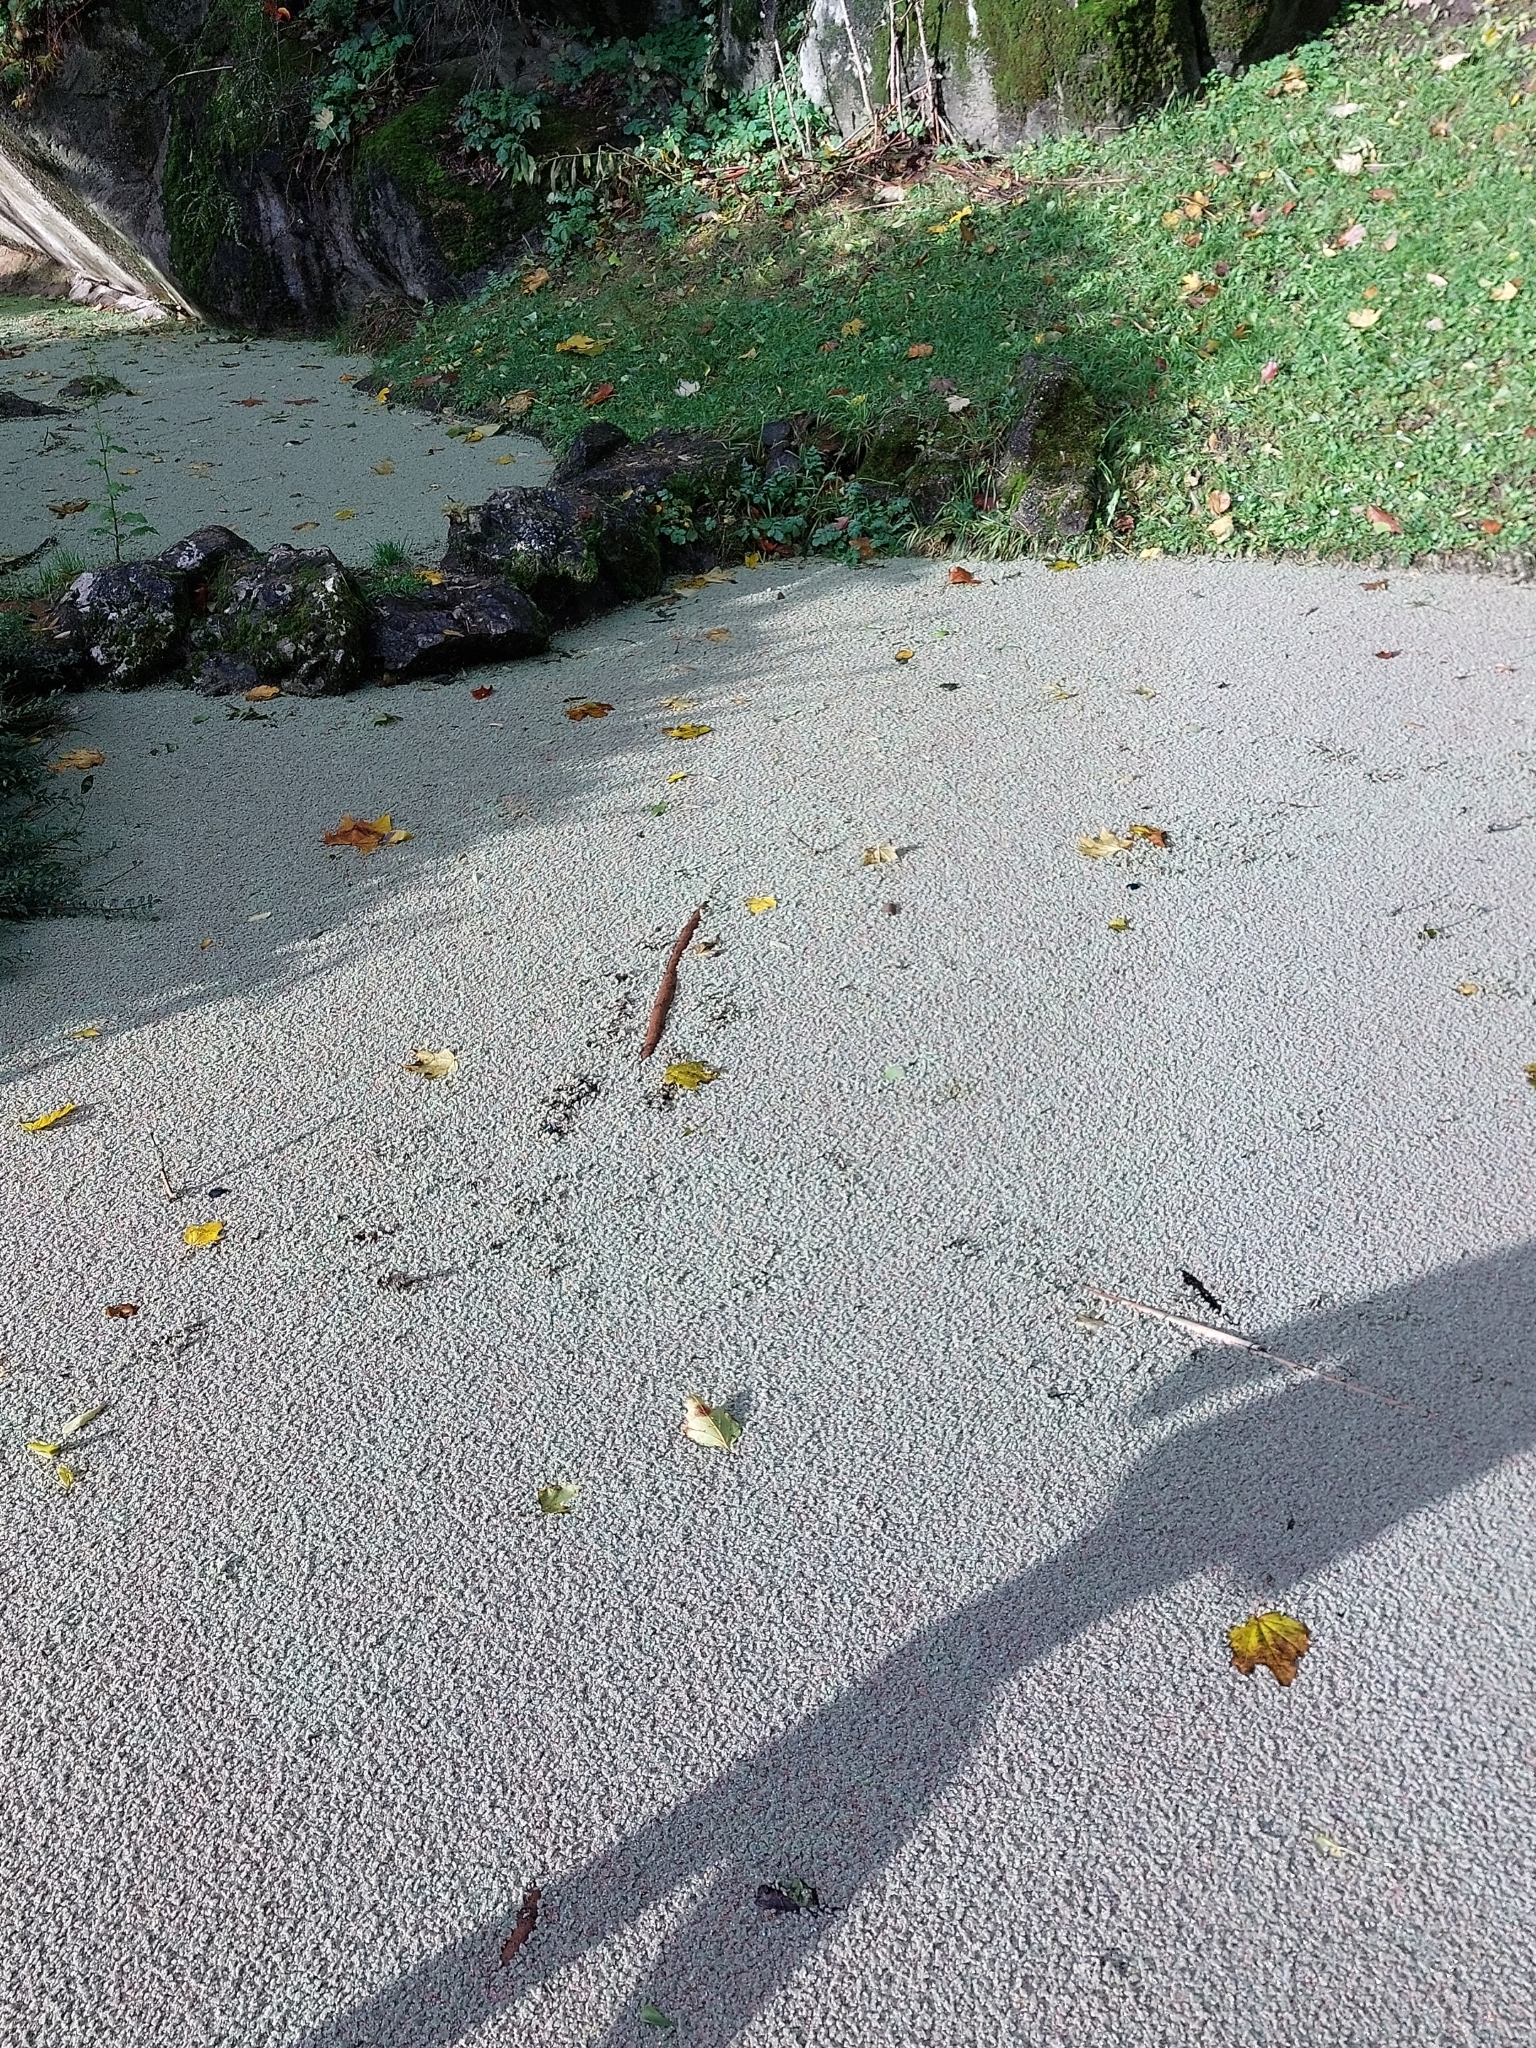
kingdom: Plantae
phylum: Tracheophyta
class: Polypodiopsida
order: Salviniales
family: Salviniaceae
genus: Azolla
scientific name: Azolla filiculoides
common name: Water fern
